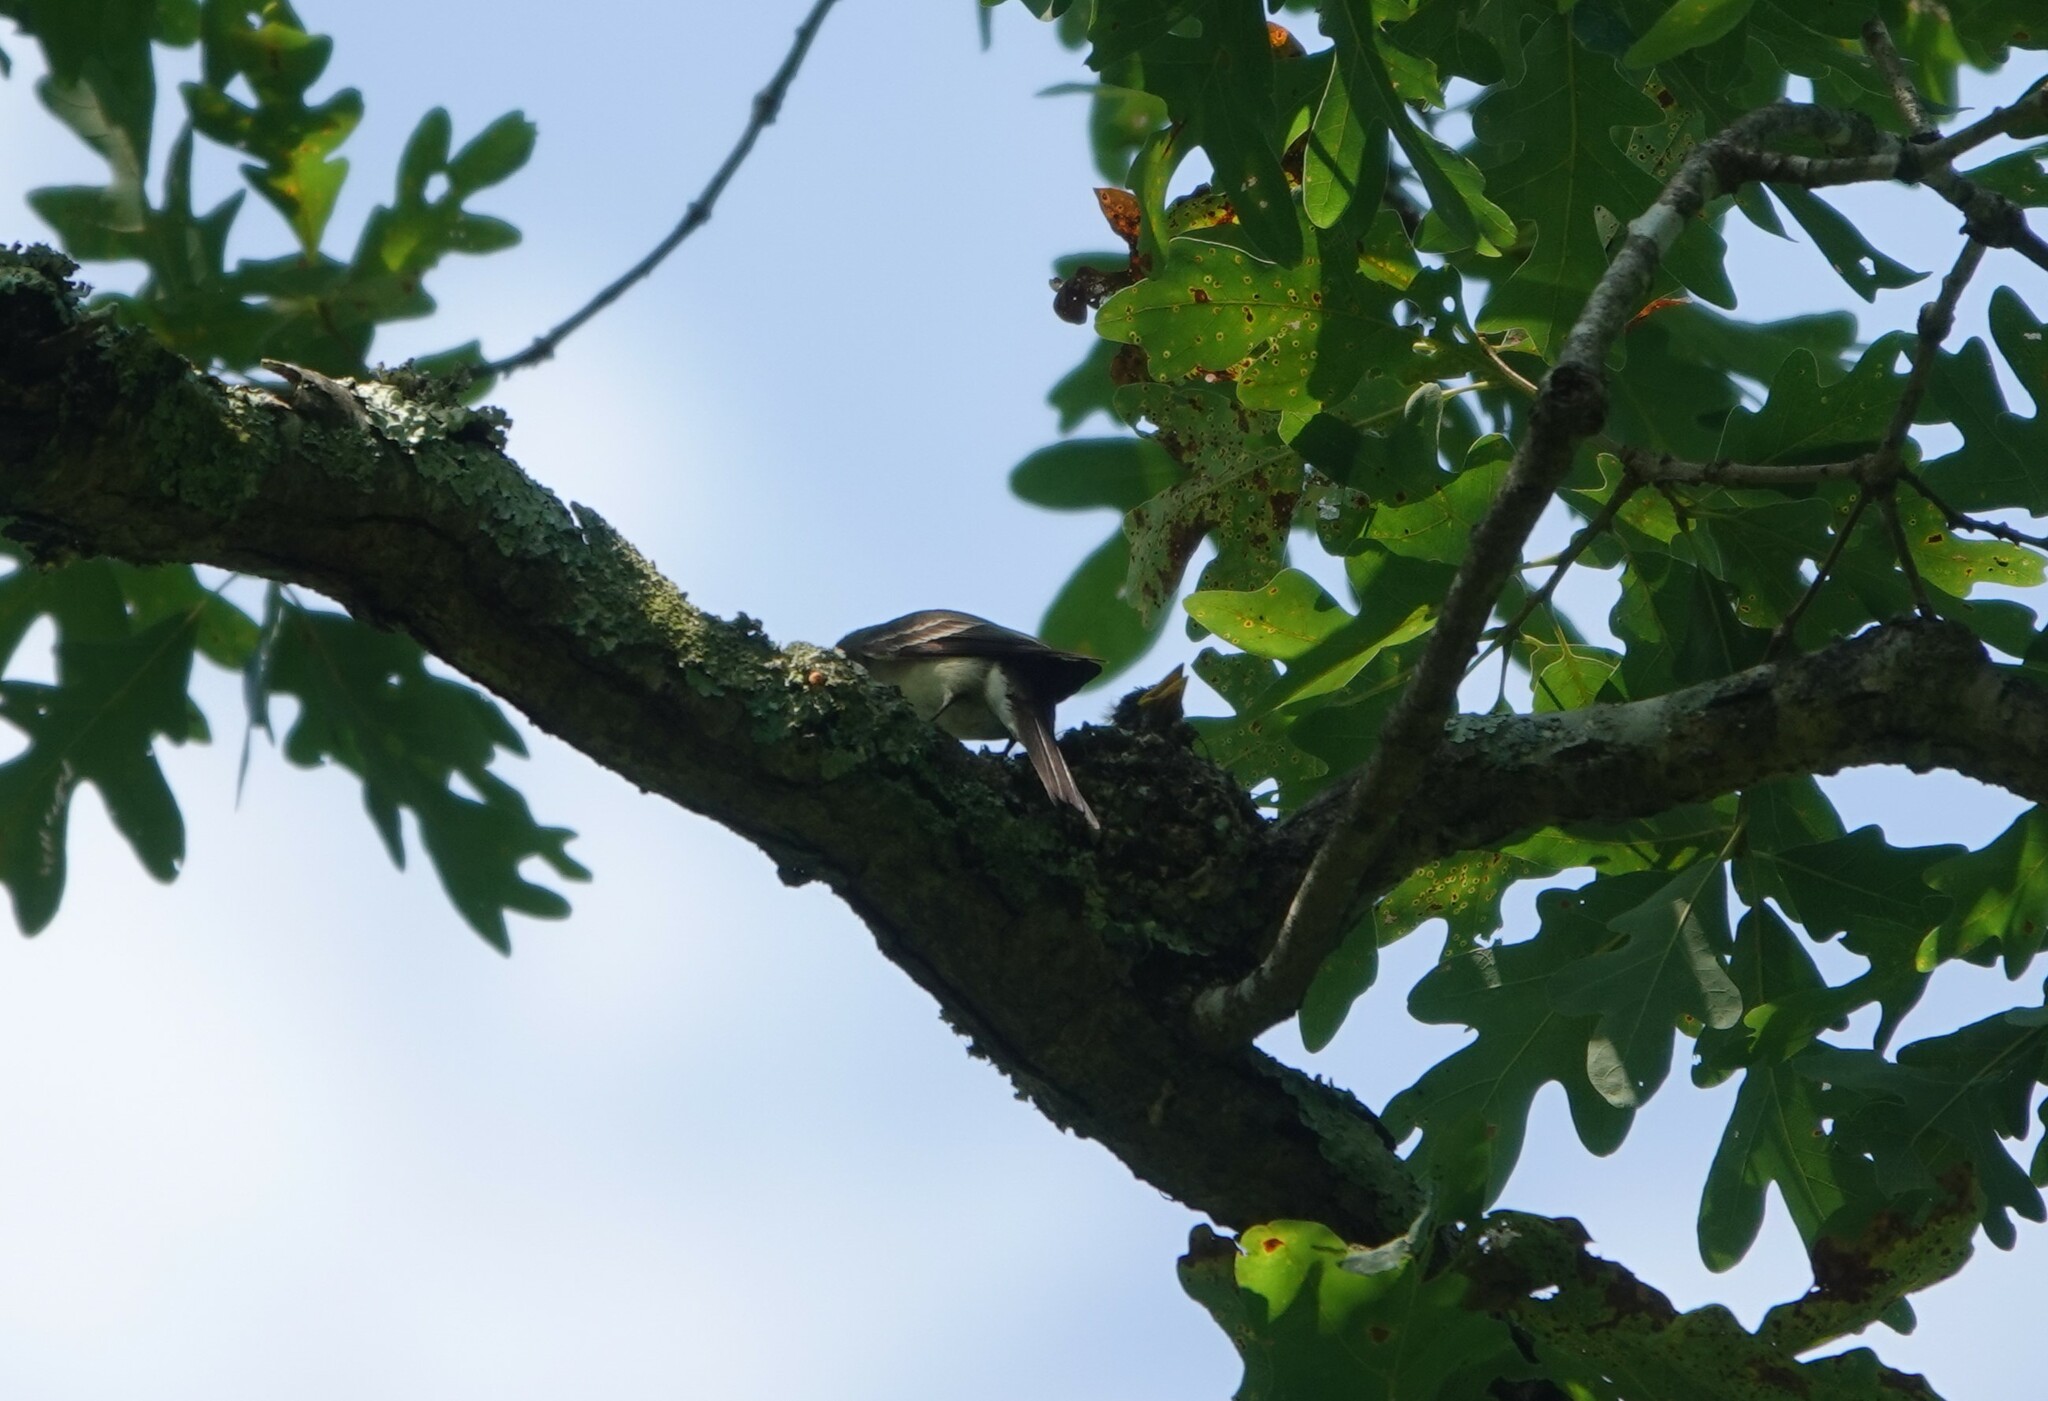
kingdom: Animalia
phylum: Chordata
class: Aves
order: Passeriformes
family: Tyrannidae
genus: Contopus
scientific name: Contopus virens
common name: Eastern wood-pewee
